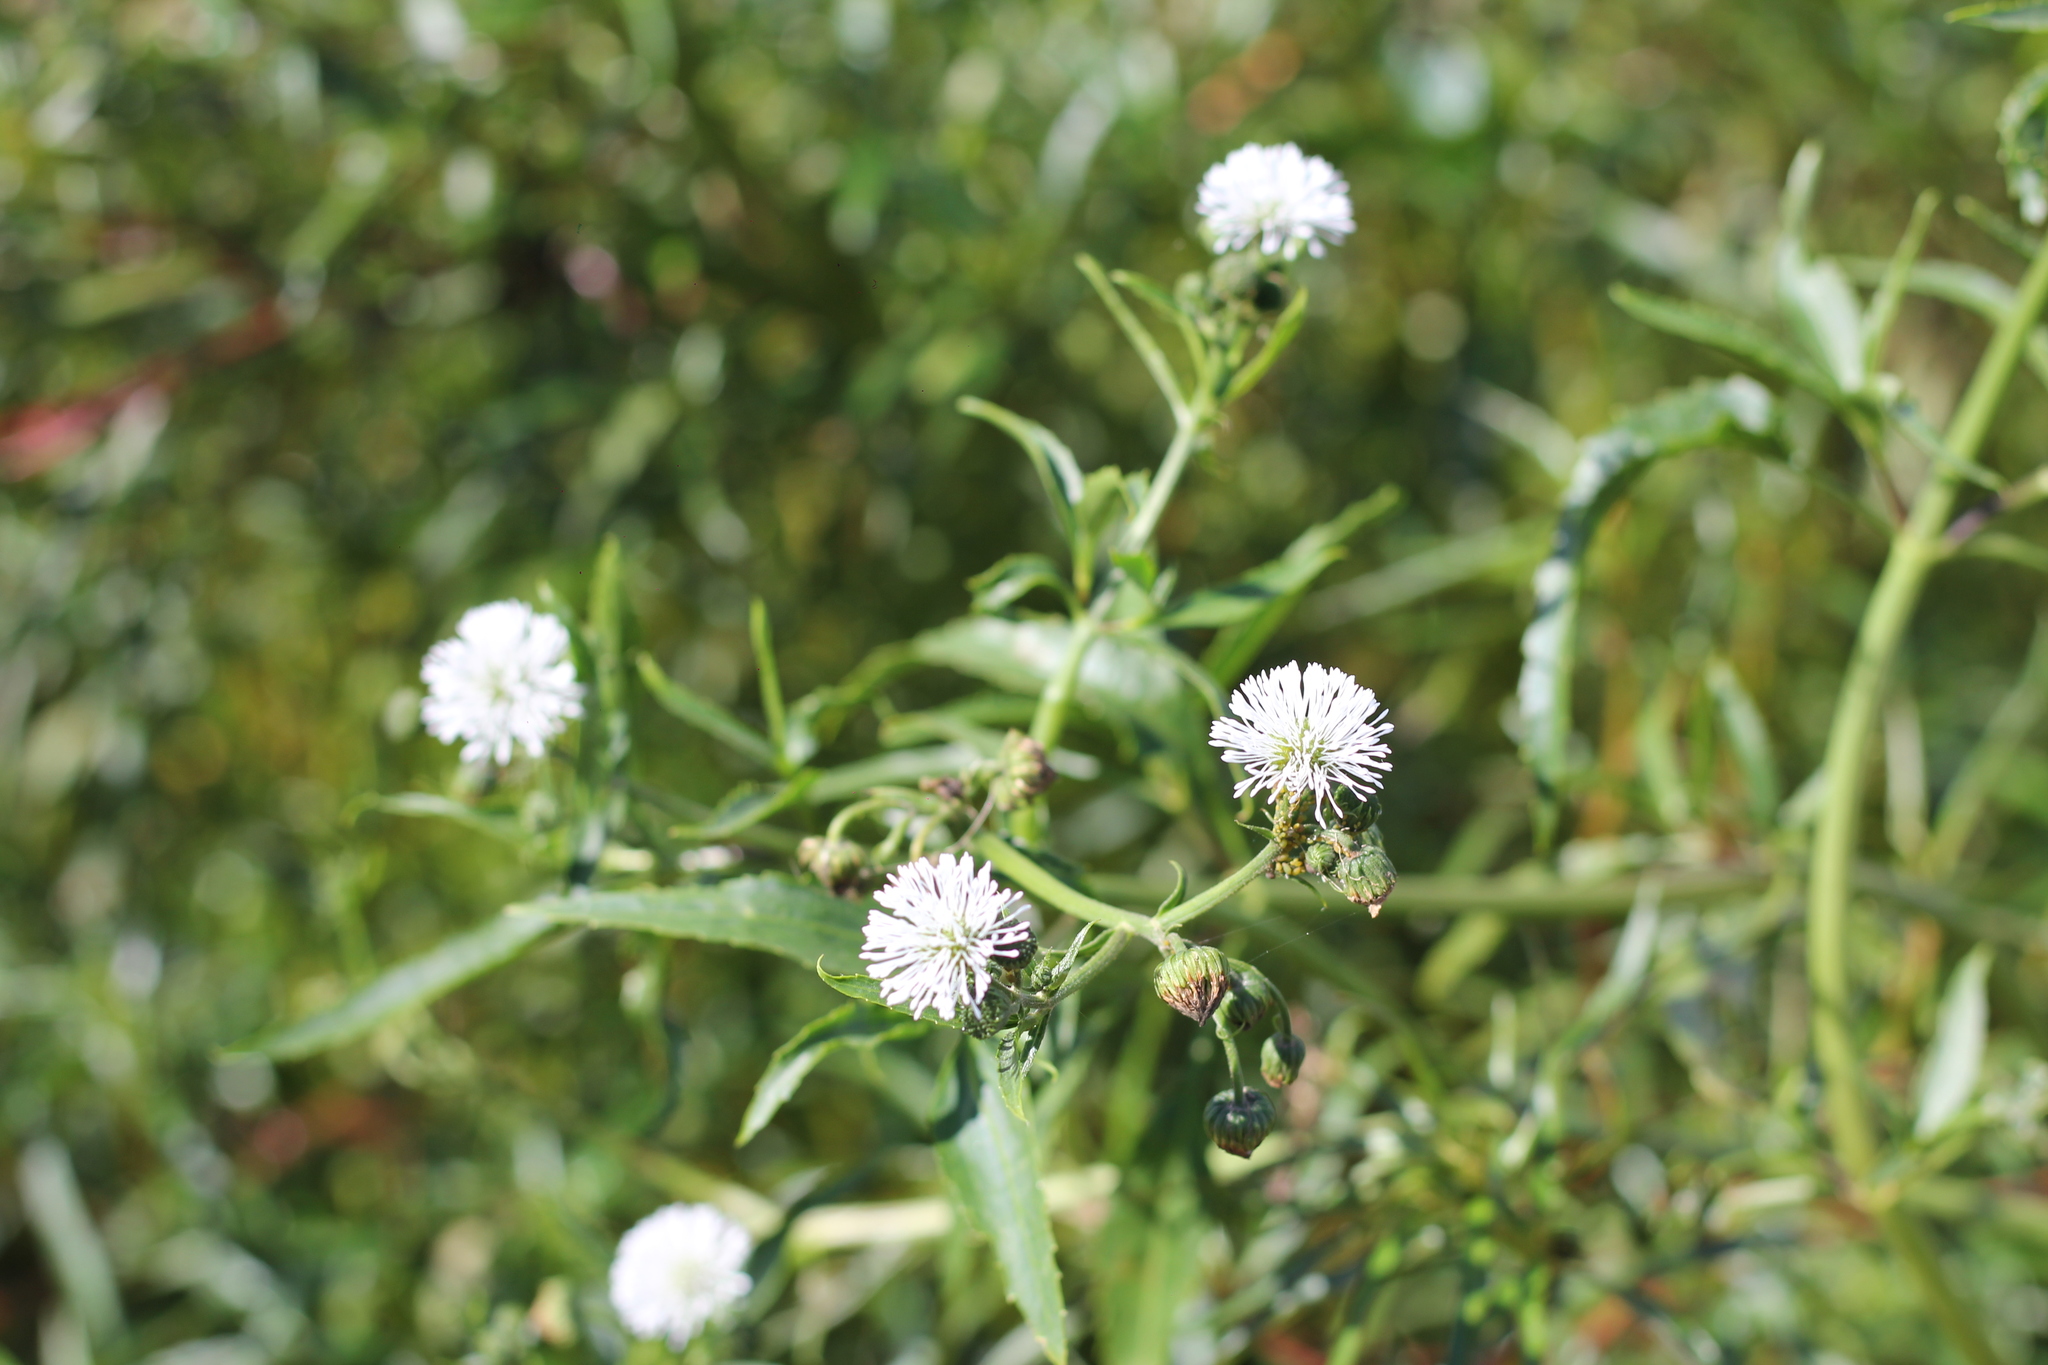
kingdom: Plantae
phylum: Tracheophyta
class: Magnoliopsida
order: Asterales
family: Asteraceae
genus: Gymnocoronis
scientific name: Gymnocoronis spilanthoides
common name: Senegal teaplant
